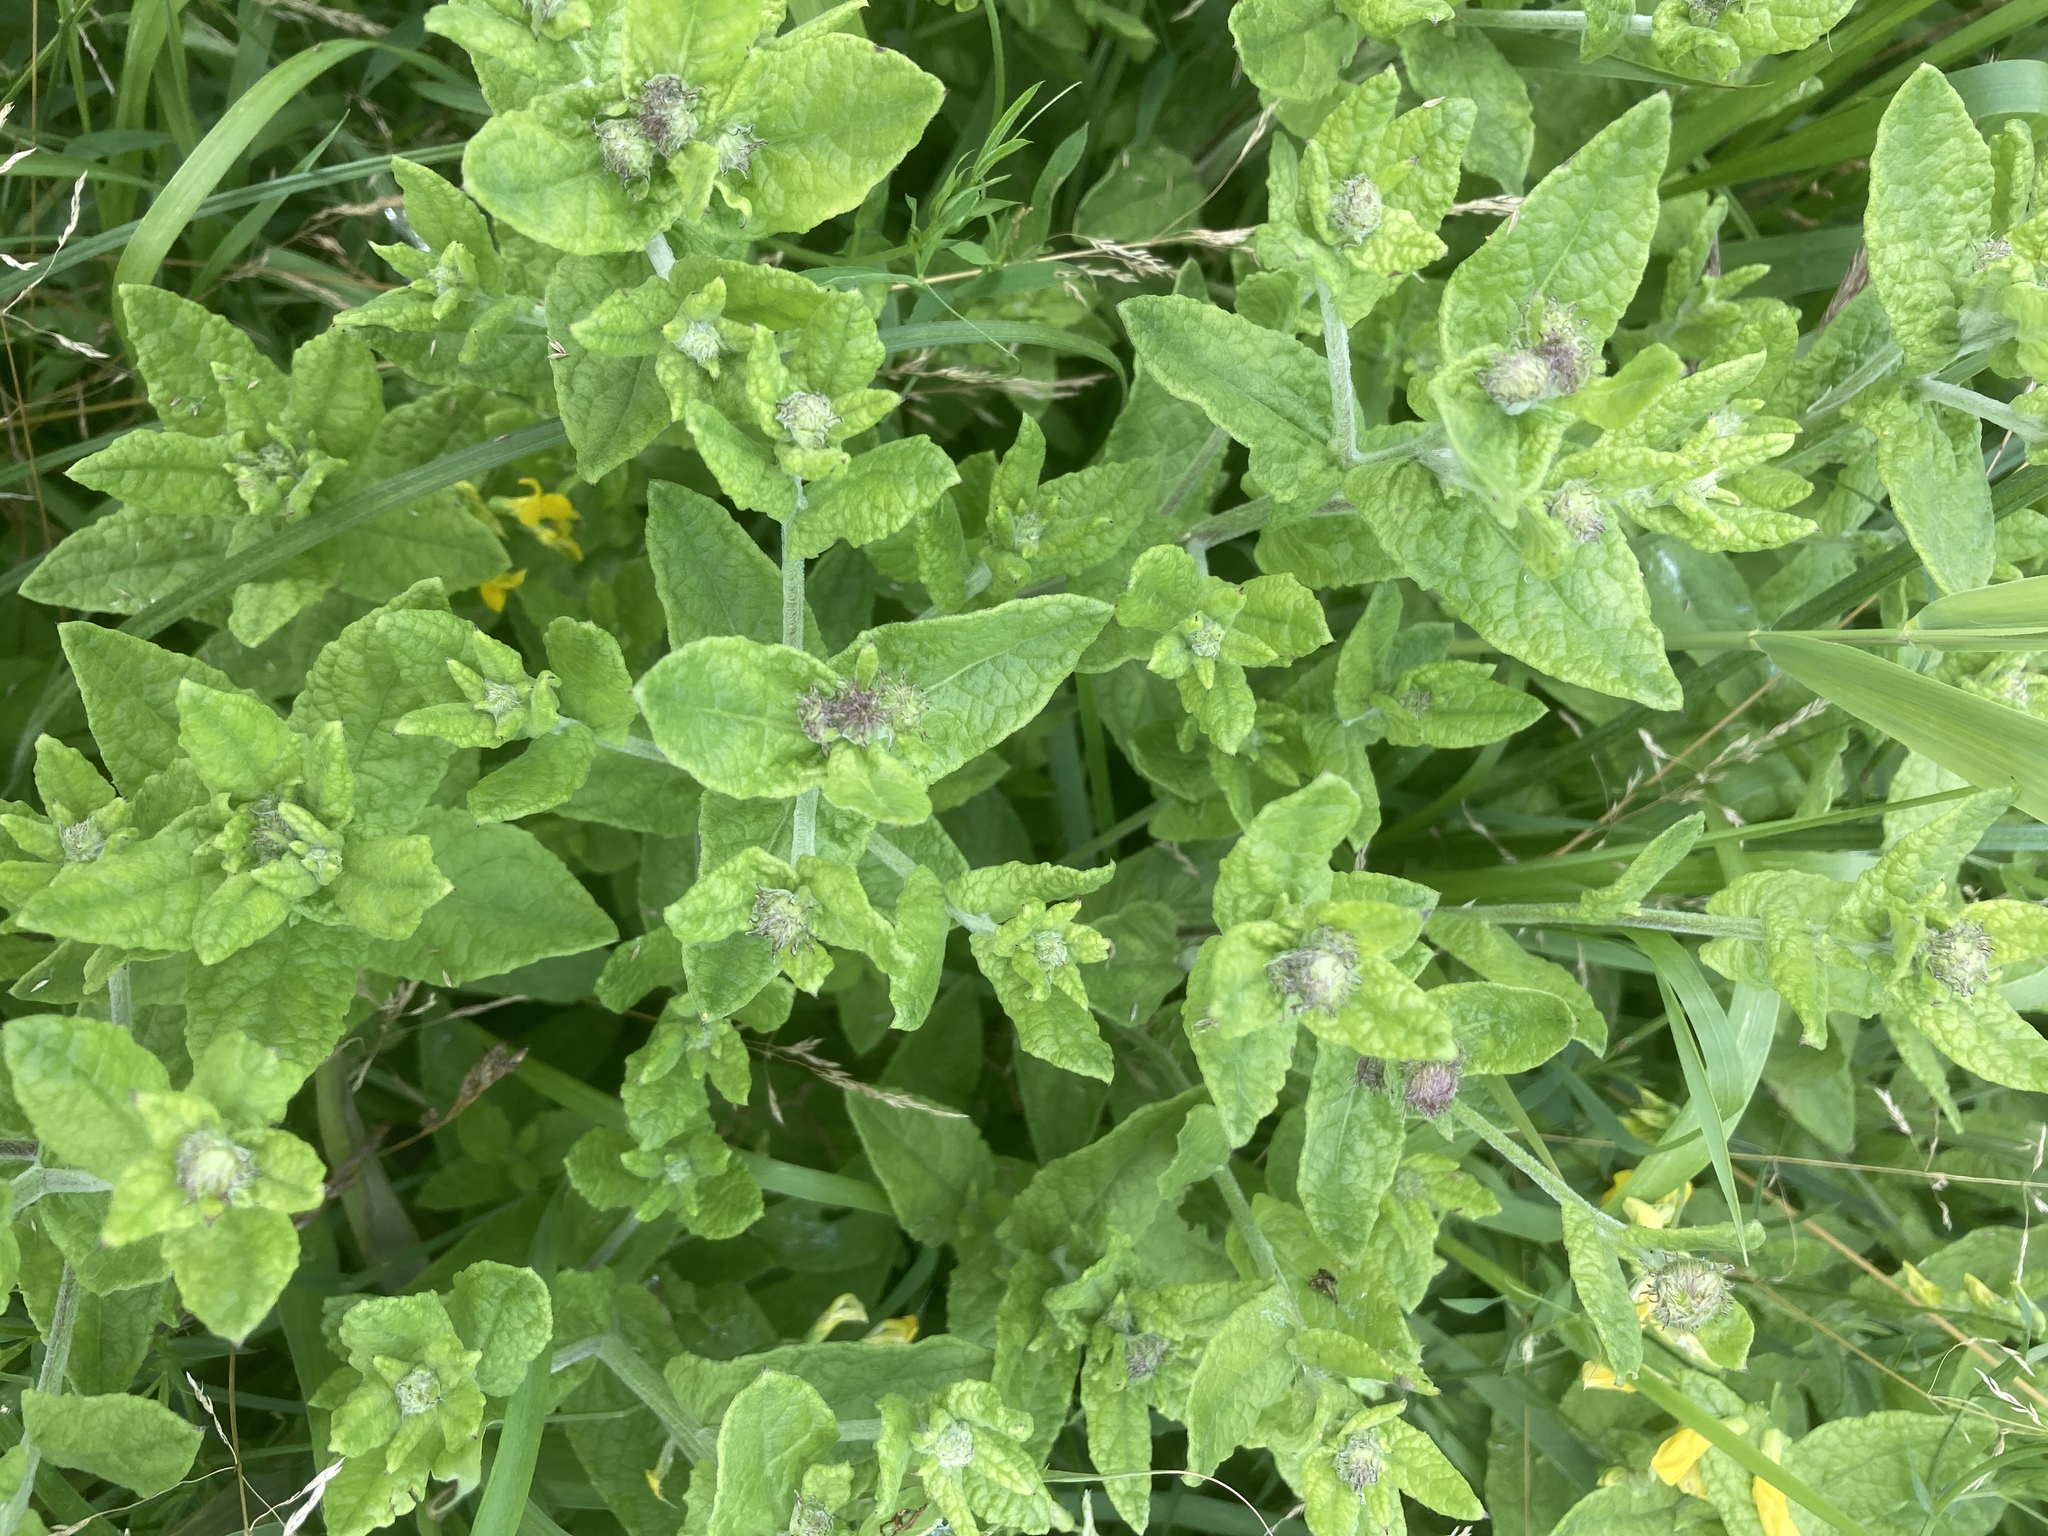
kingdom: Plantae
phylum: Tracheophyta
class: Magnoliopsida
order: Asterales
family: Asteraceae
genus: Pulicaria
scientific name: Pulicaria dysenterica
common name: Common fleabane
